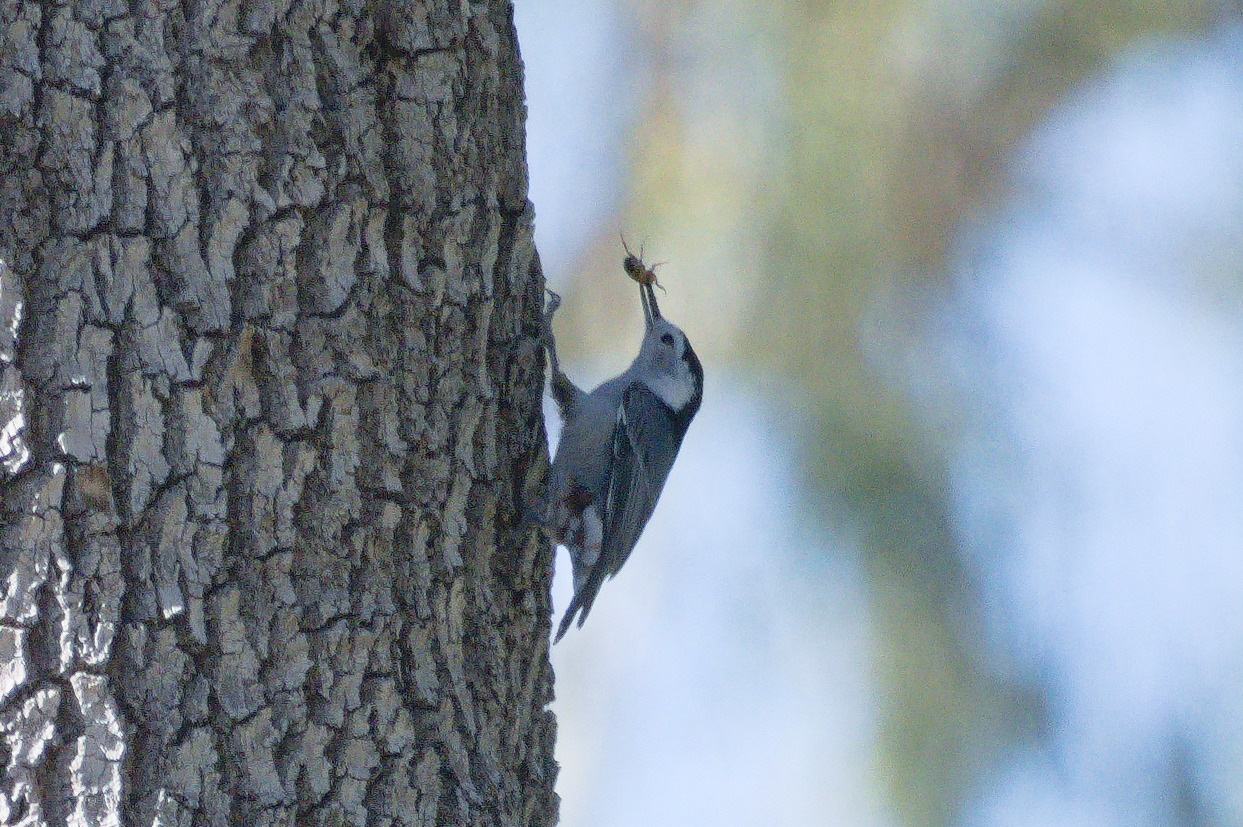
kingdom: Animalia
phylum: Chordata
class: Aves
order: Passeriformes
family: Sittidae
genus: Sitta
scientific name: Sitta carolinensis
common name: White-breasted nuthatch
